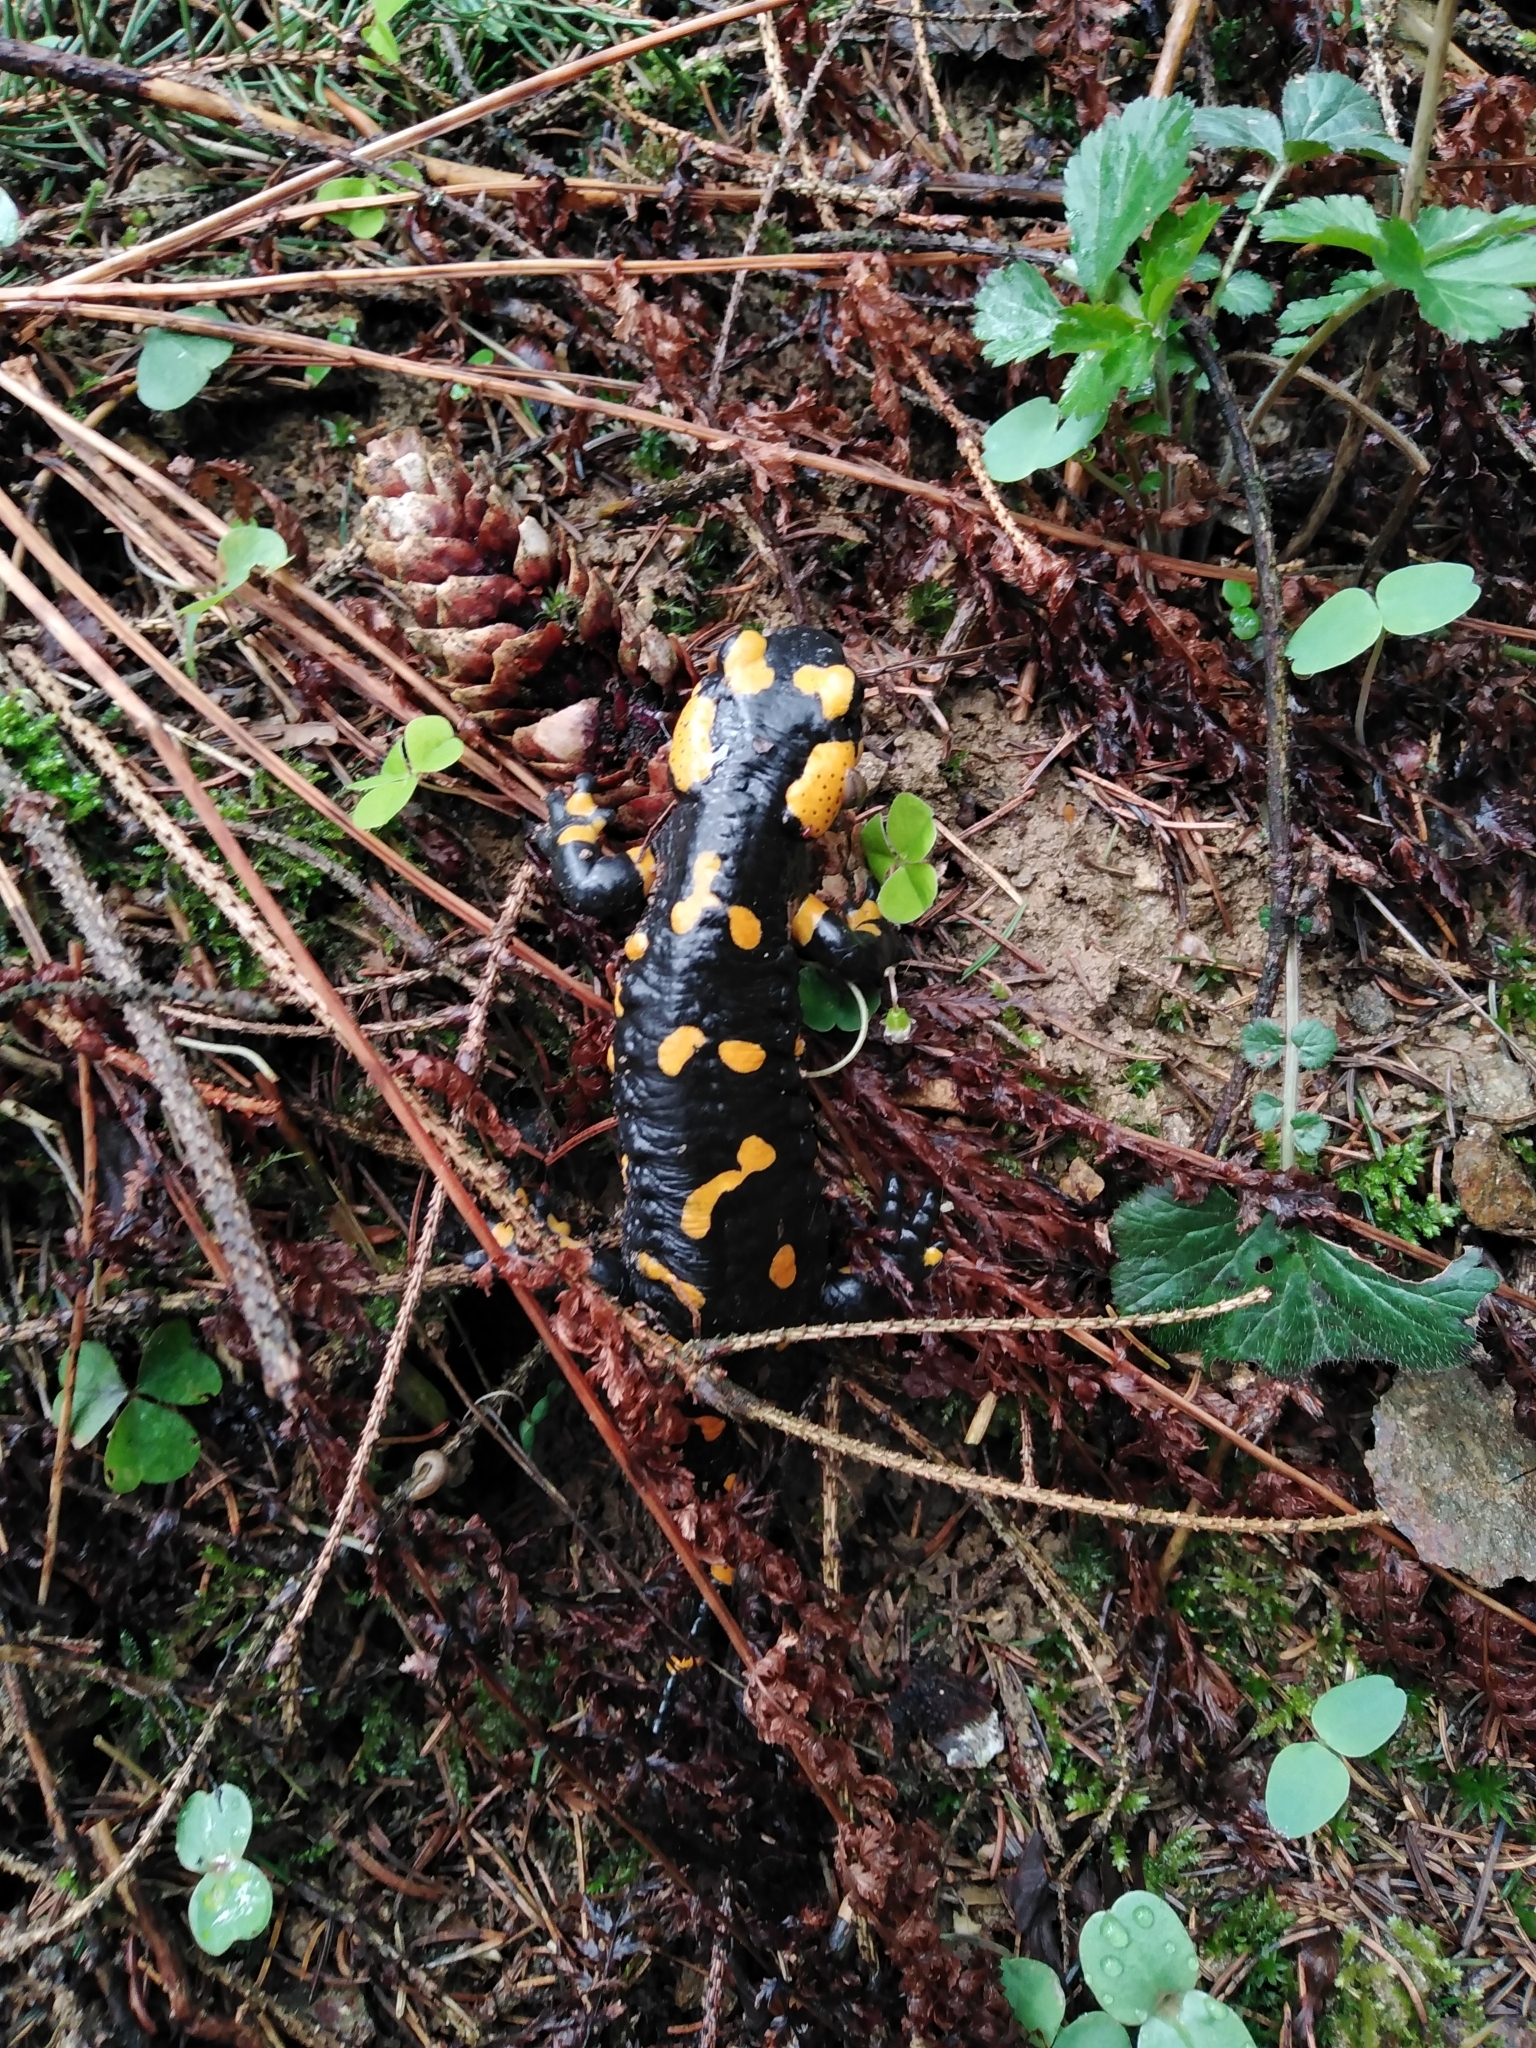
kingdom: Animalia
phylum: Chordata
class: Amphibia
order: Caudata
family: Salamandridae
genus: Salamandra
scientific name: Salamandra salamandra
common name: Fire salamander
